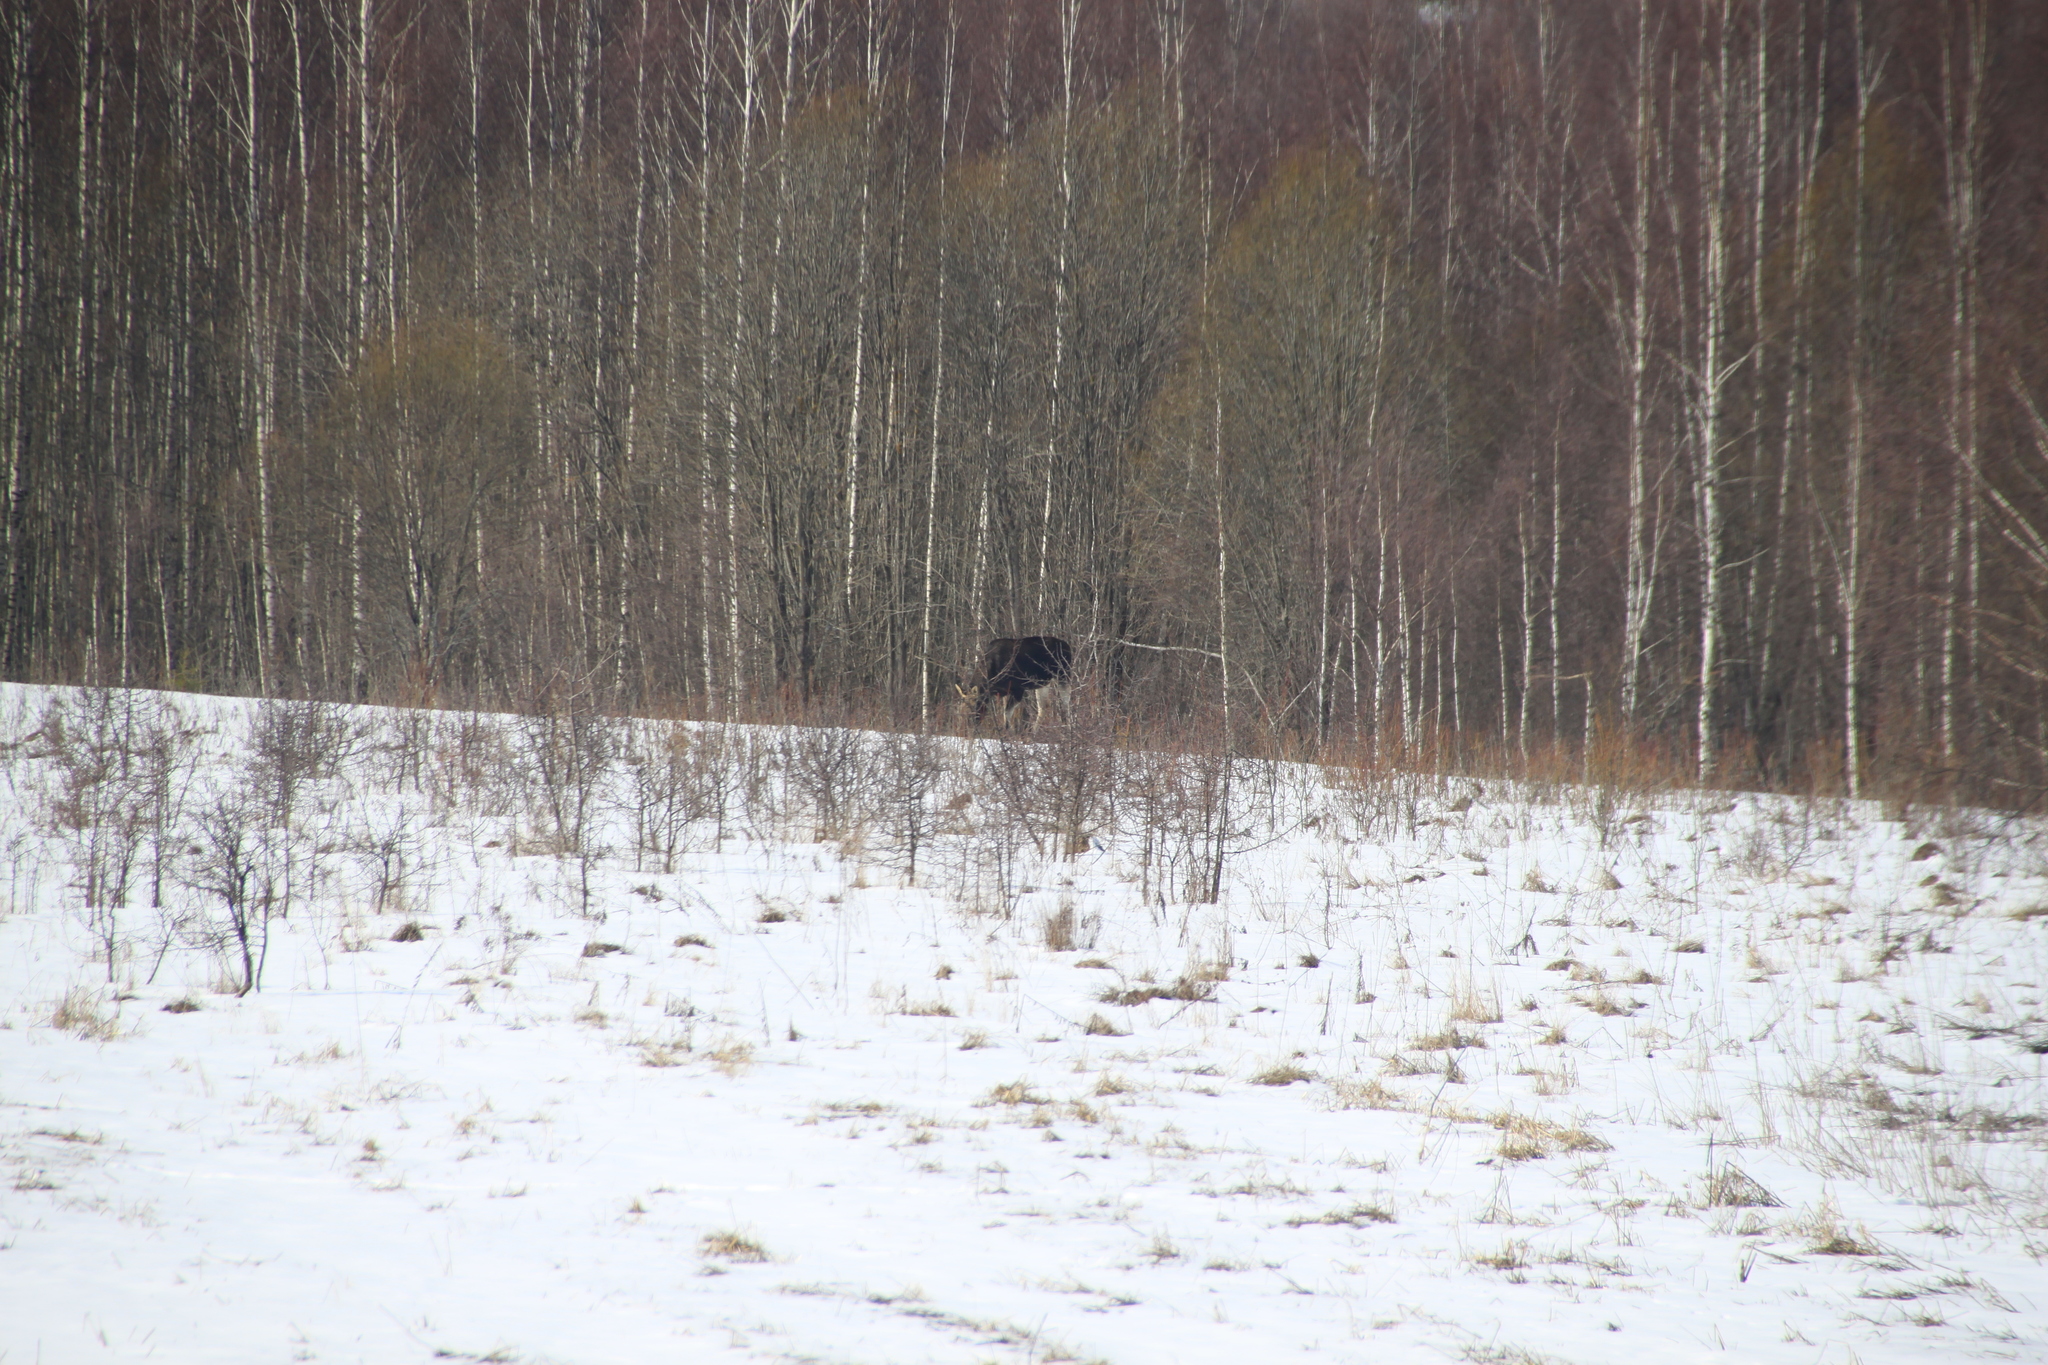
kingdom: Animalia
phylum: Chordata
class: Mammalia
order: Artiodactyla
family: Cervidae
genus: Alces
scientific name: Alces alces
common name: Moose
